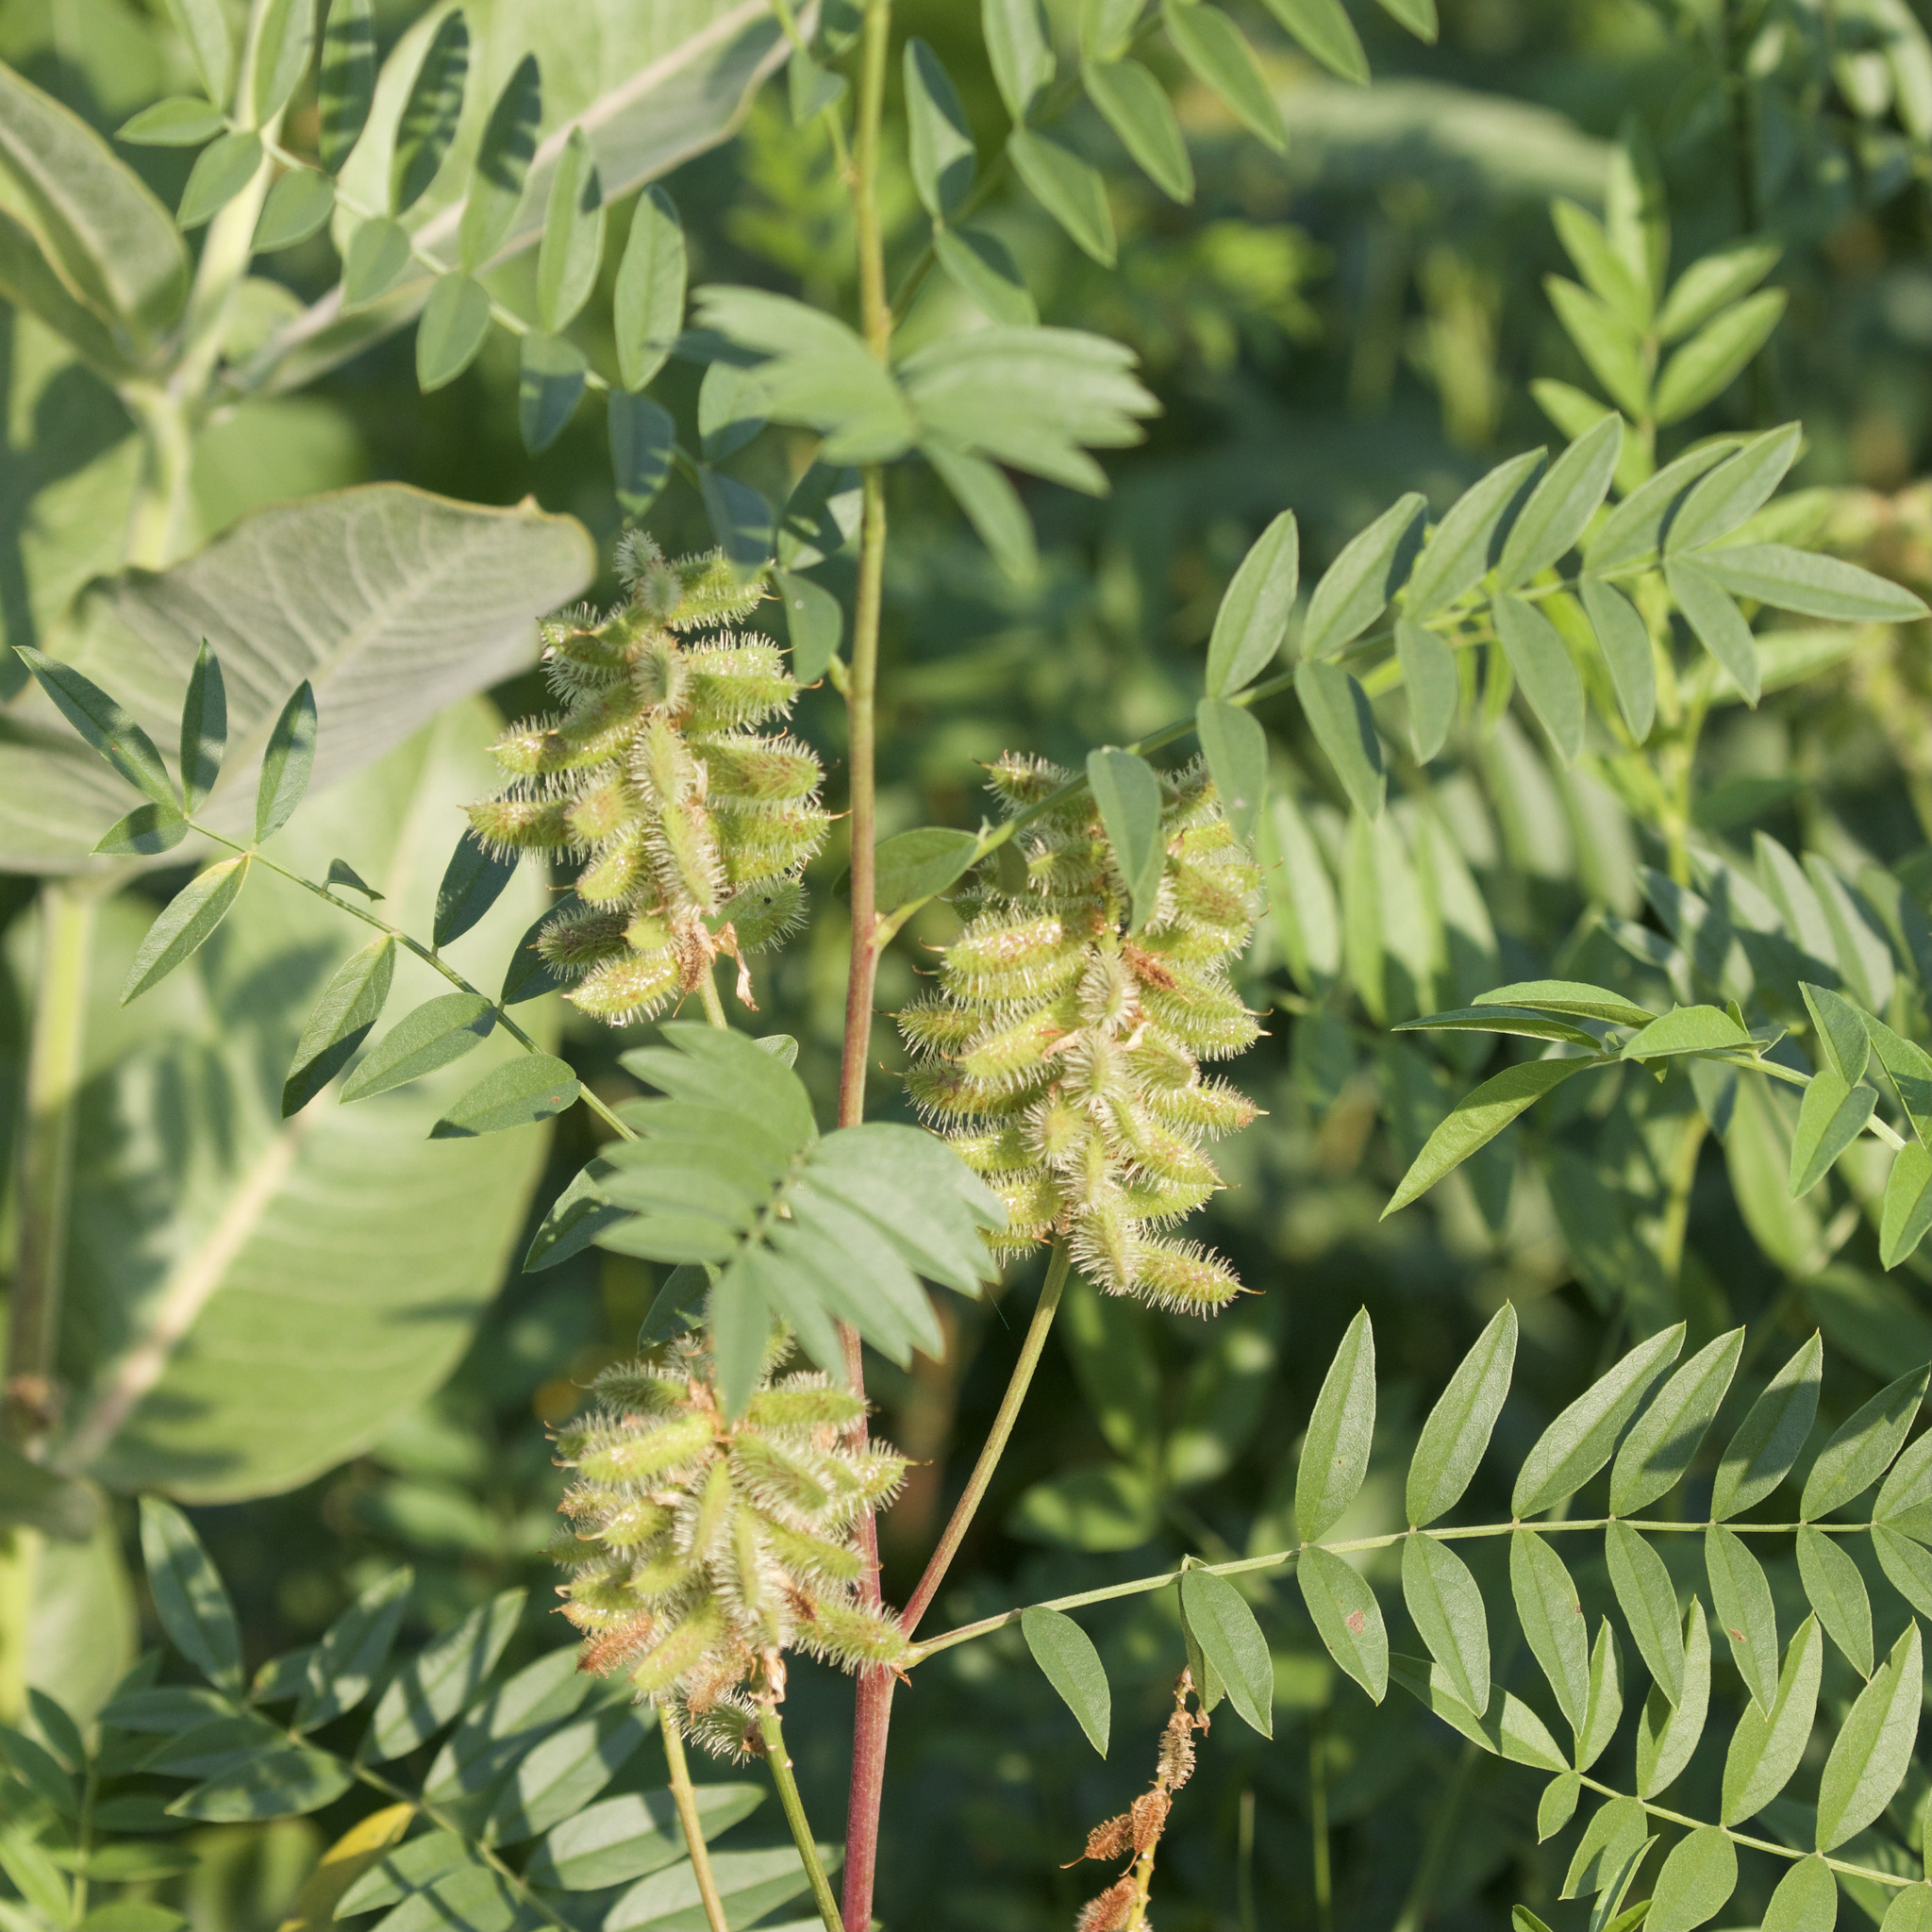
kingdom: Plantae
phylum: Tracheophyta
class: Magnoliopsida
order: Fabales
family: Fabaceae
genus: Glycyrrhiza
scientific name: Glycyrrhiza lepidota
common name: American liquorice
